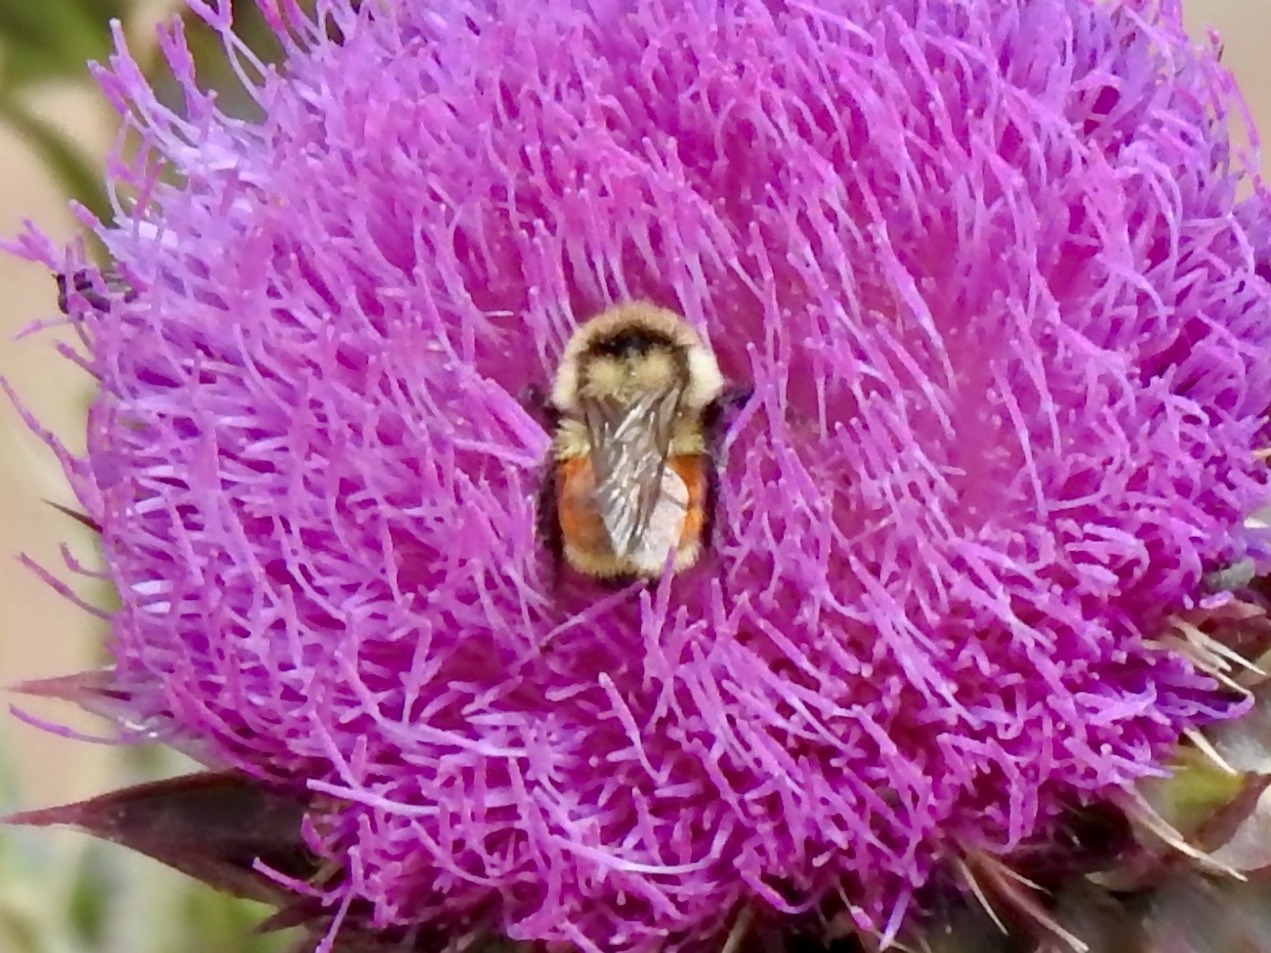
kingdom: Animalia
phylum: Arthropoda
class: Insecta
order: Hymenoptera
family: Apidae
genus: Bombus
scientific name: Bombus huntii
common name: Hunt bumble bee
